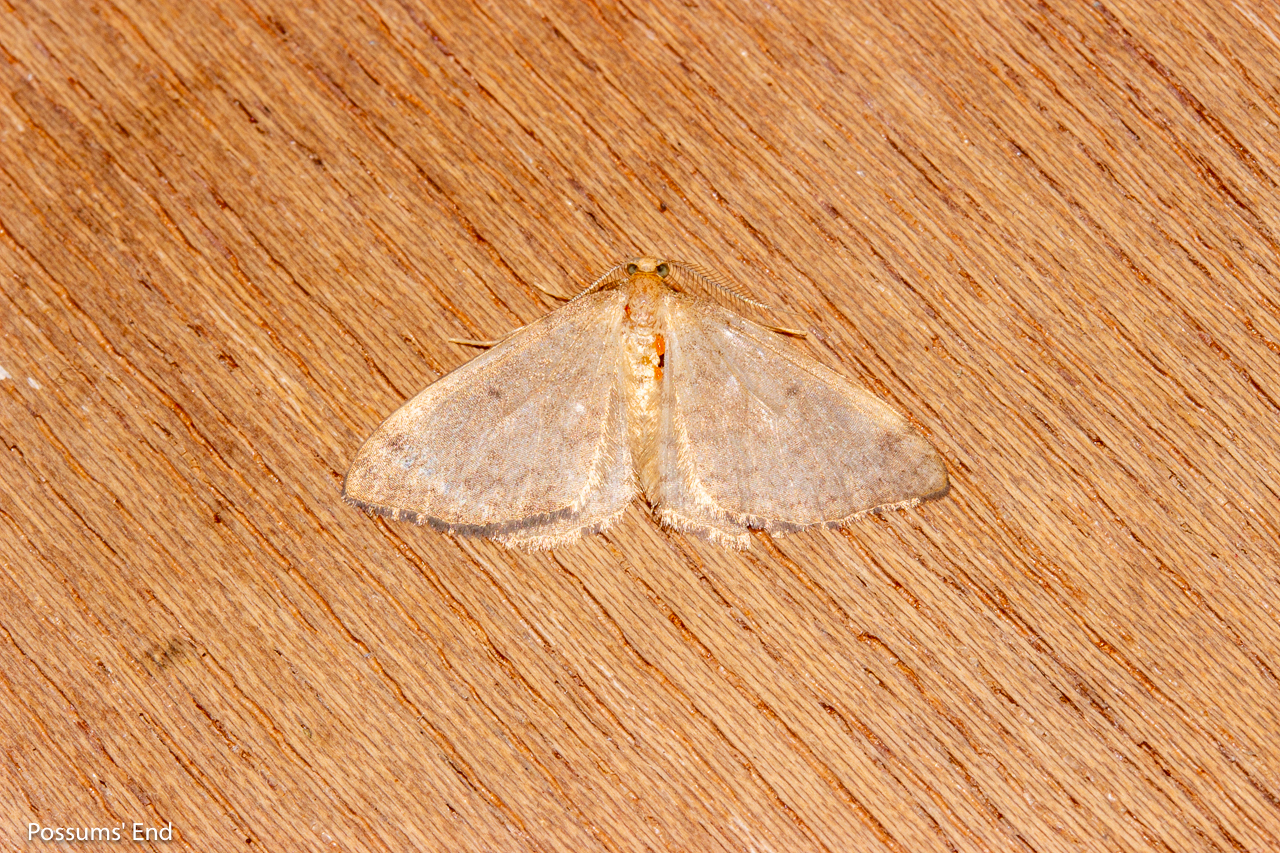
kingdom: Animalia
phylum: Arthropoda
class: Insecta
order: Lepidoptera
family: Geometridae
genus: Epiphryne
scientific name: Epiphryne undosata
